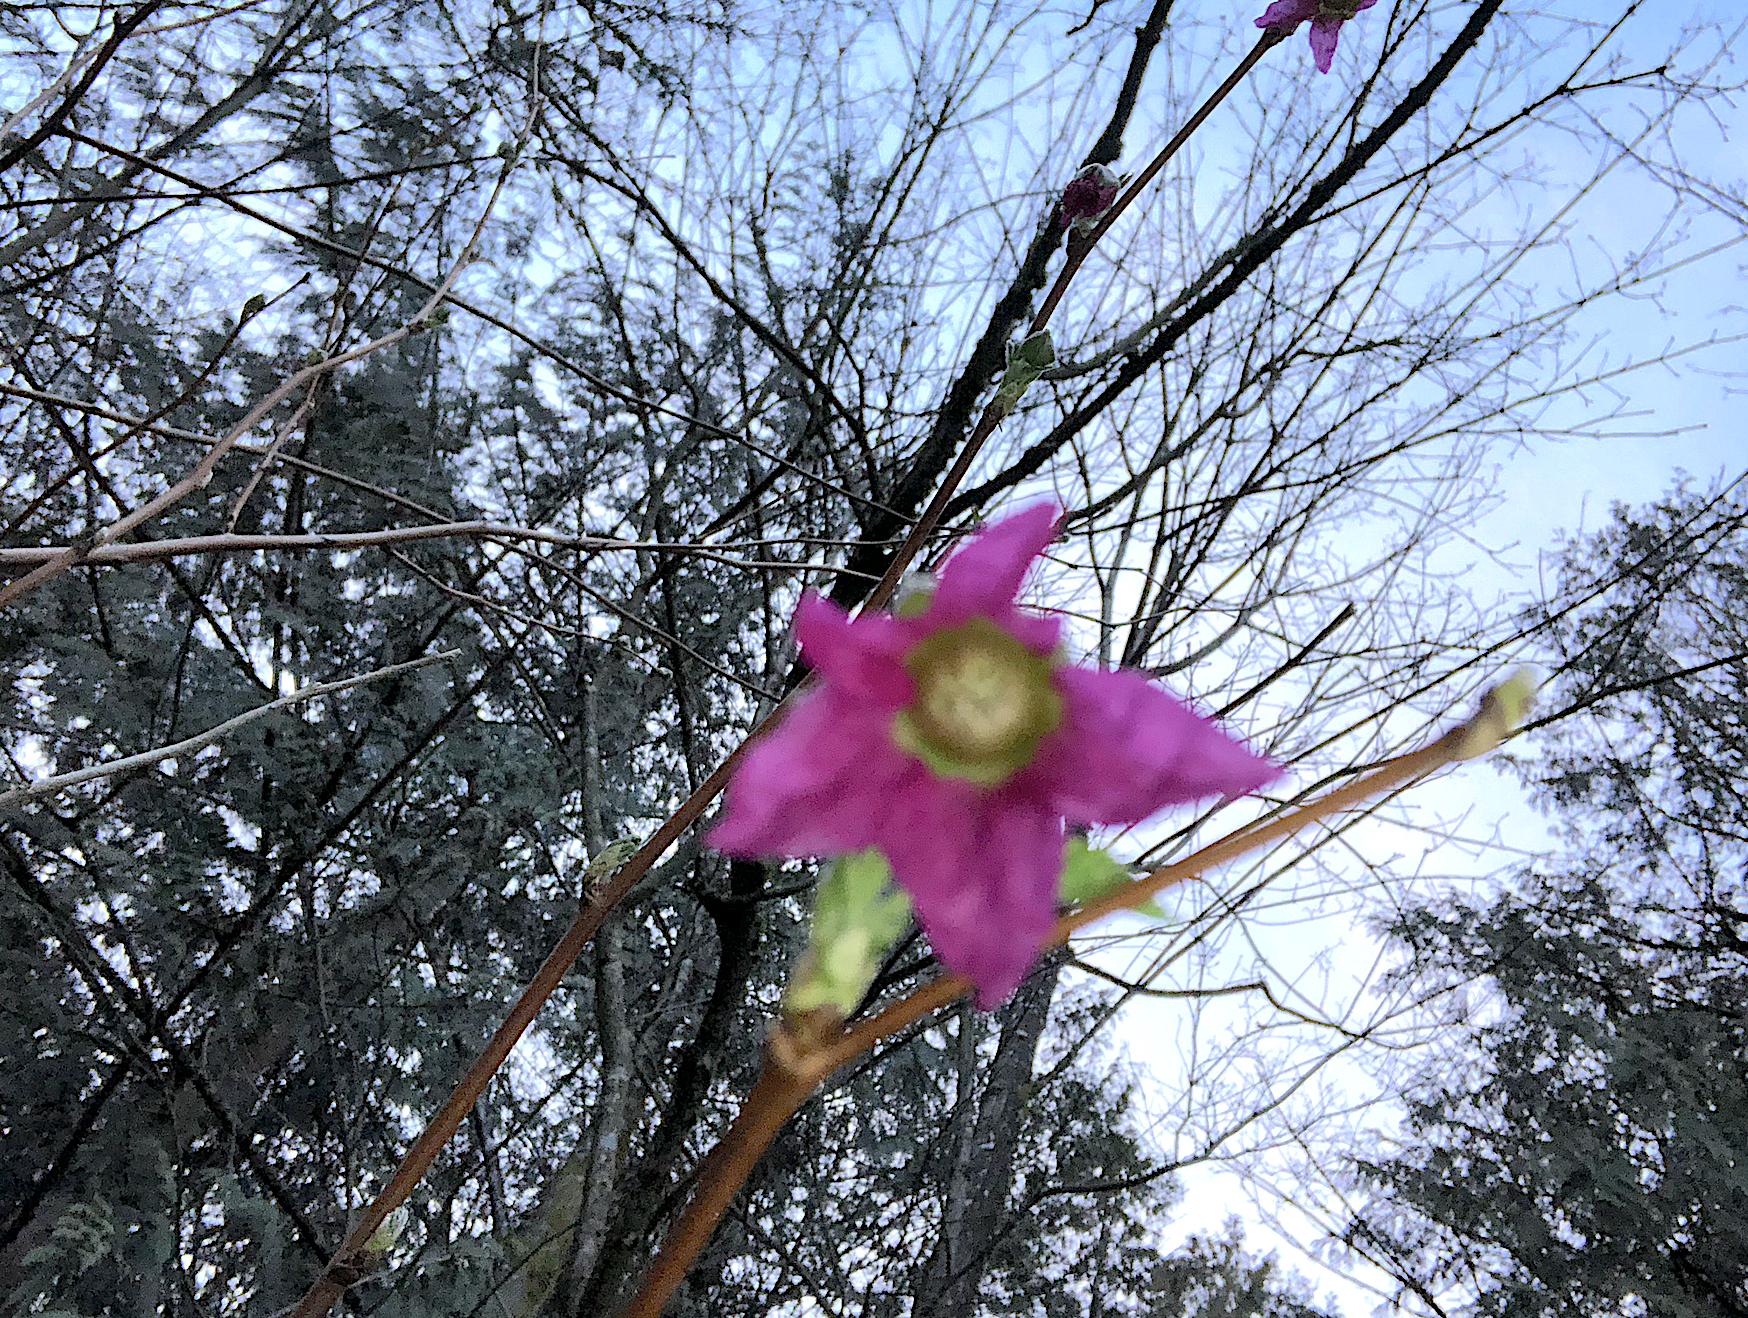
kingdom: Plantae
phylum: Tracheophyta
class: Magnoliopsida
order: Rosales
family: Rosaceae
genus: Rubus
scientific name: Rubus spectabilis
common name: Salmonberry
